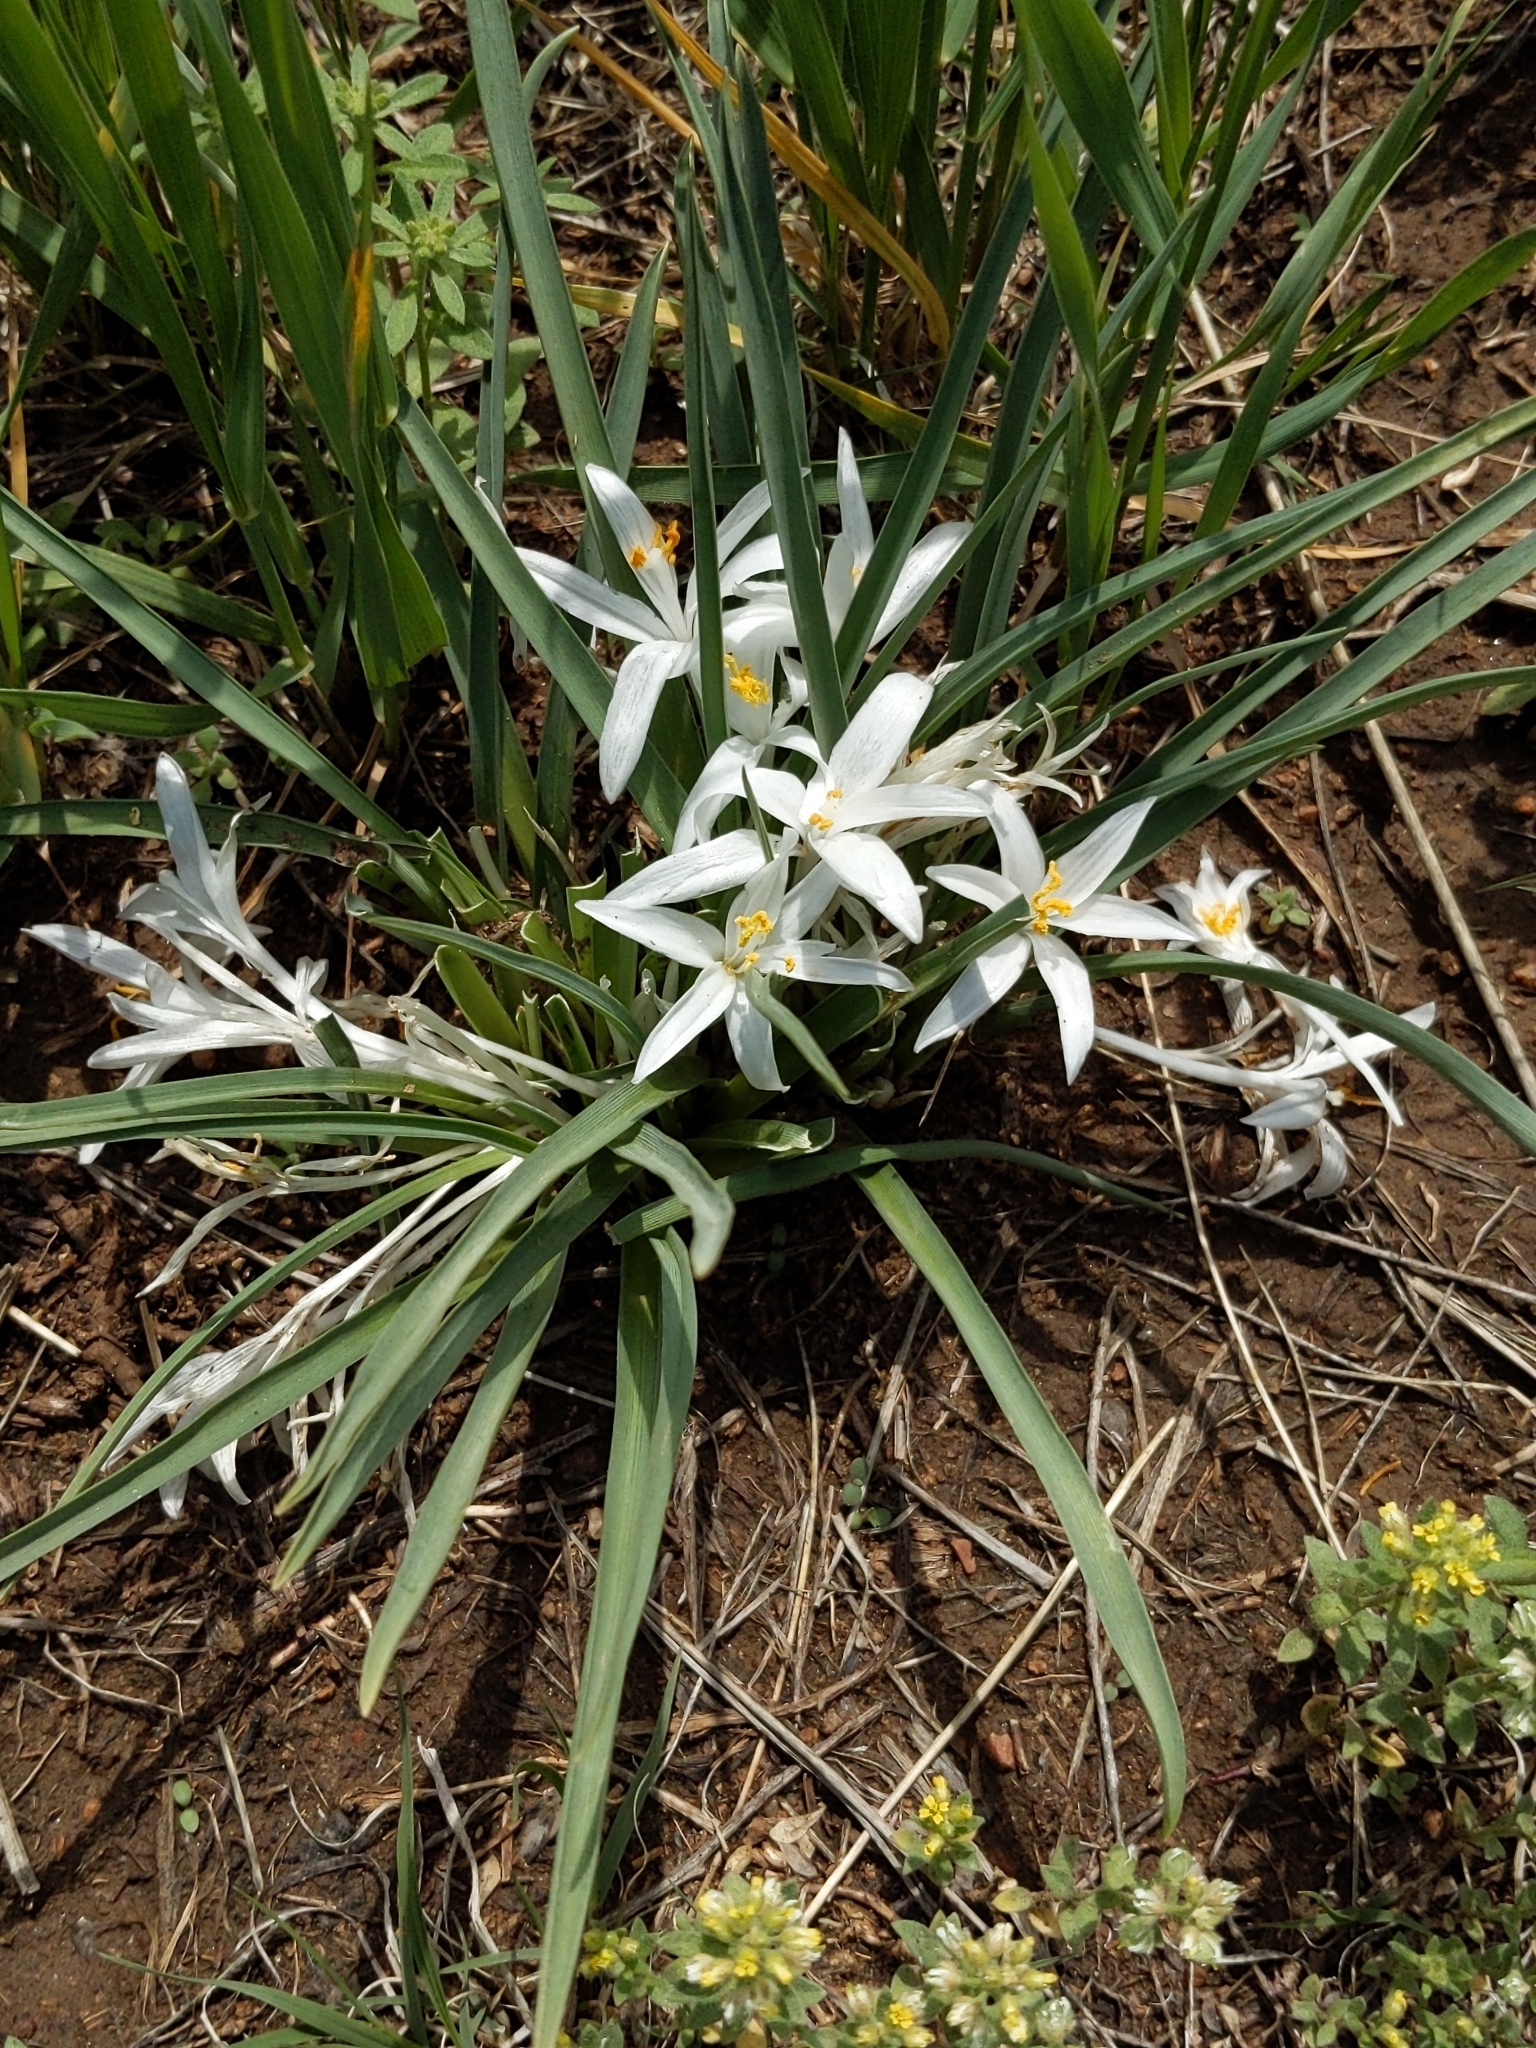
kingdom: Plantae
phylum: Tracheophyta
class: Liliopsida
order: Asparagales
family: Asparagaceae
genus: Leucocrinum
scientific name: Leucocrinum montanum
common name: Mountain-lily
